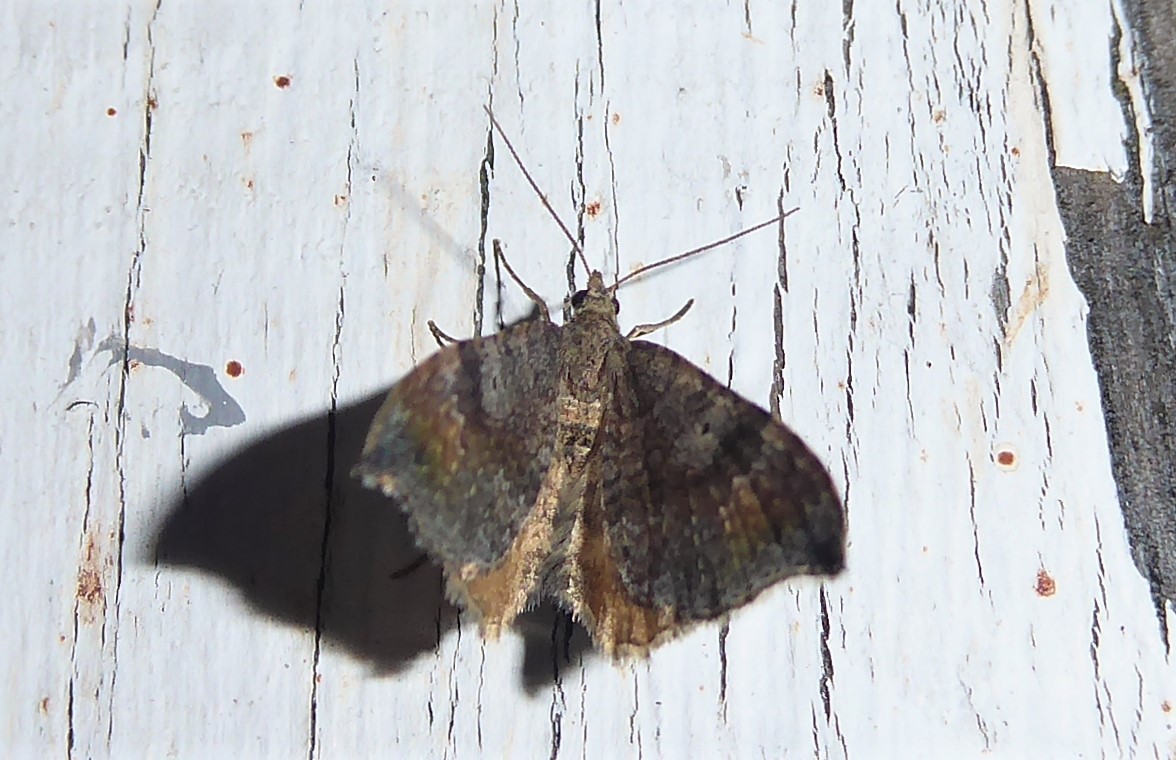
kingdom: Animalia
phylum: Arthropoda
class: Insecta
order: Lepidoptera
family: Geometridae
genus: Homodotis
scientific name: Homodotis megaspilata
